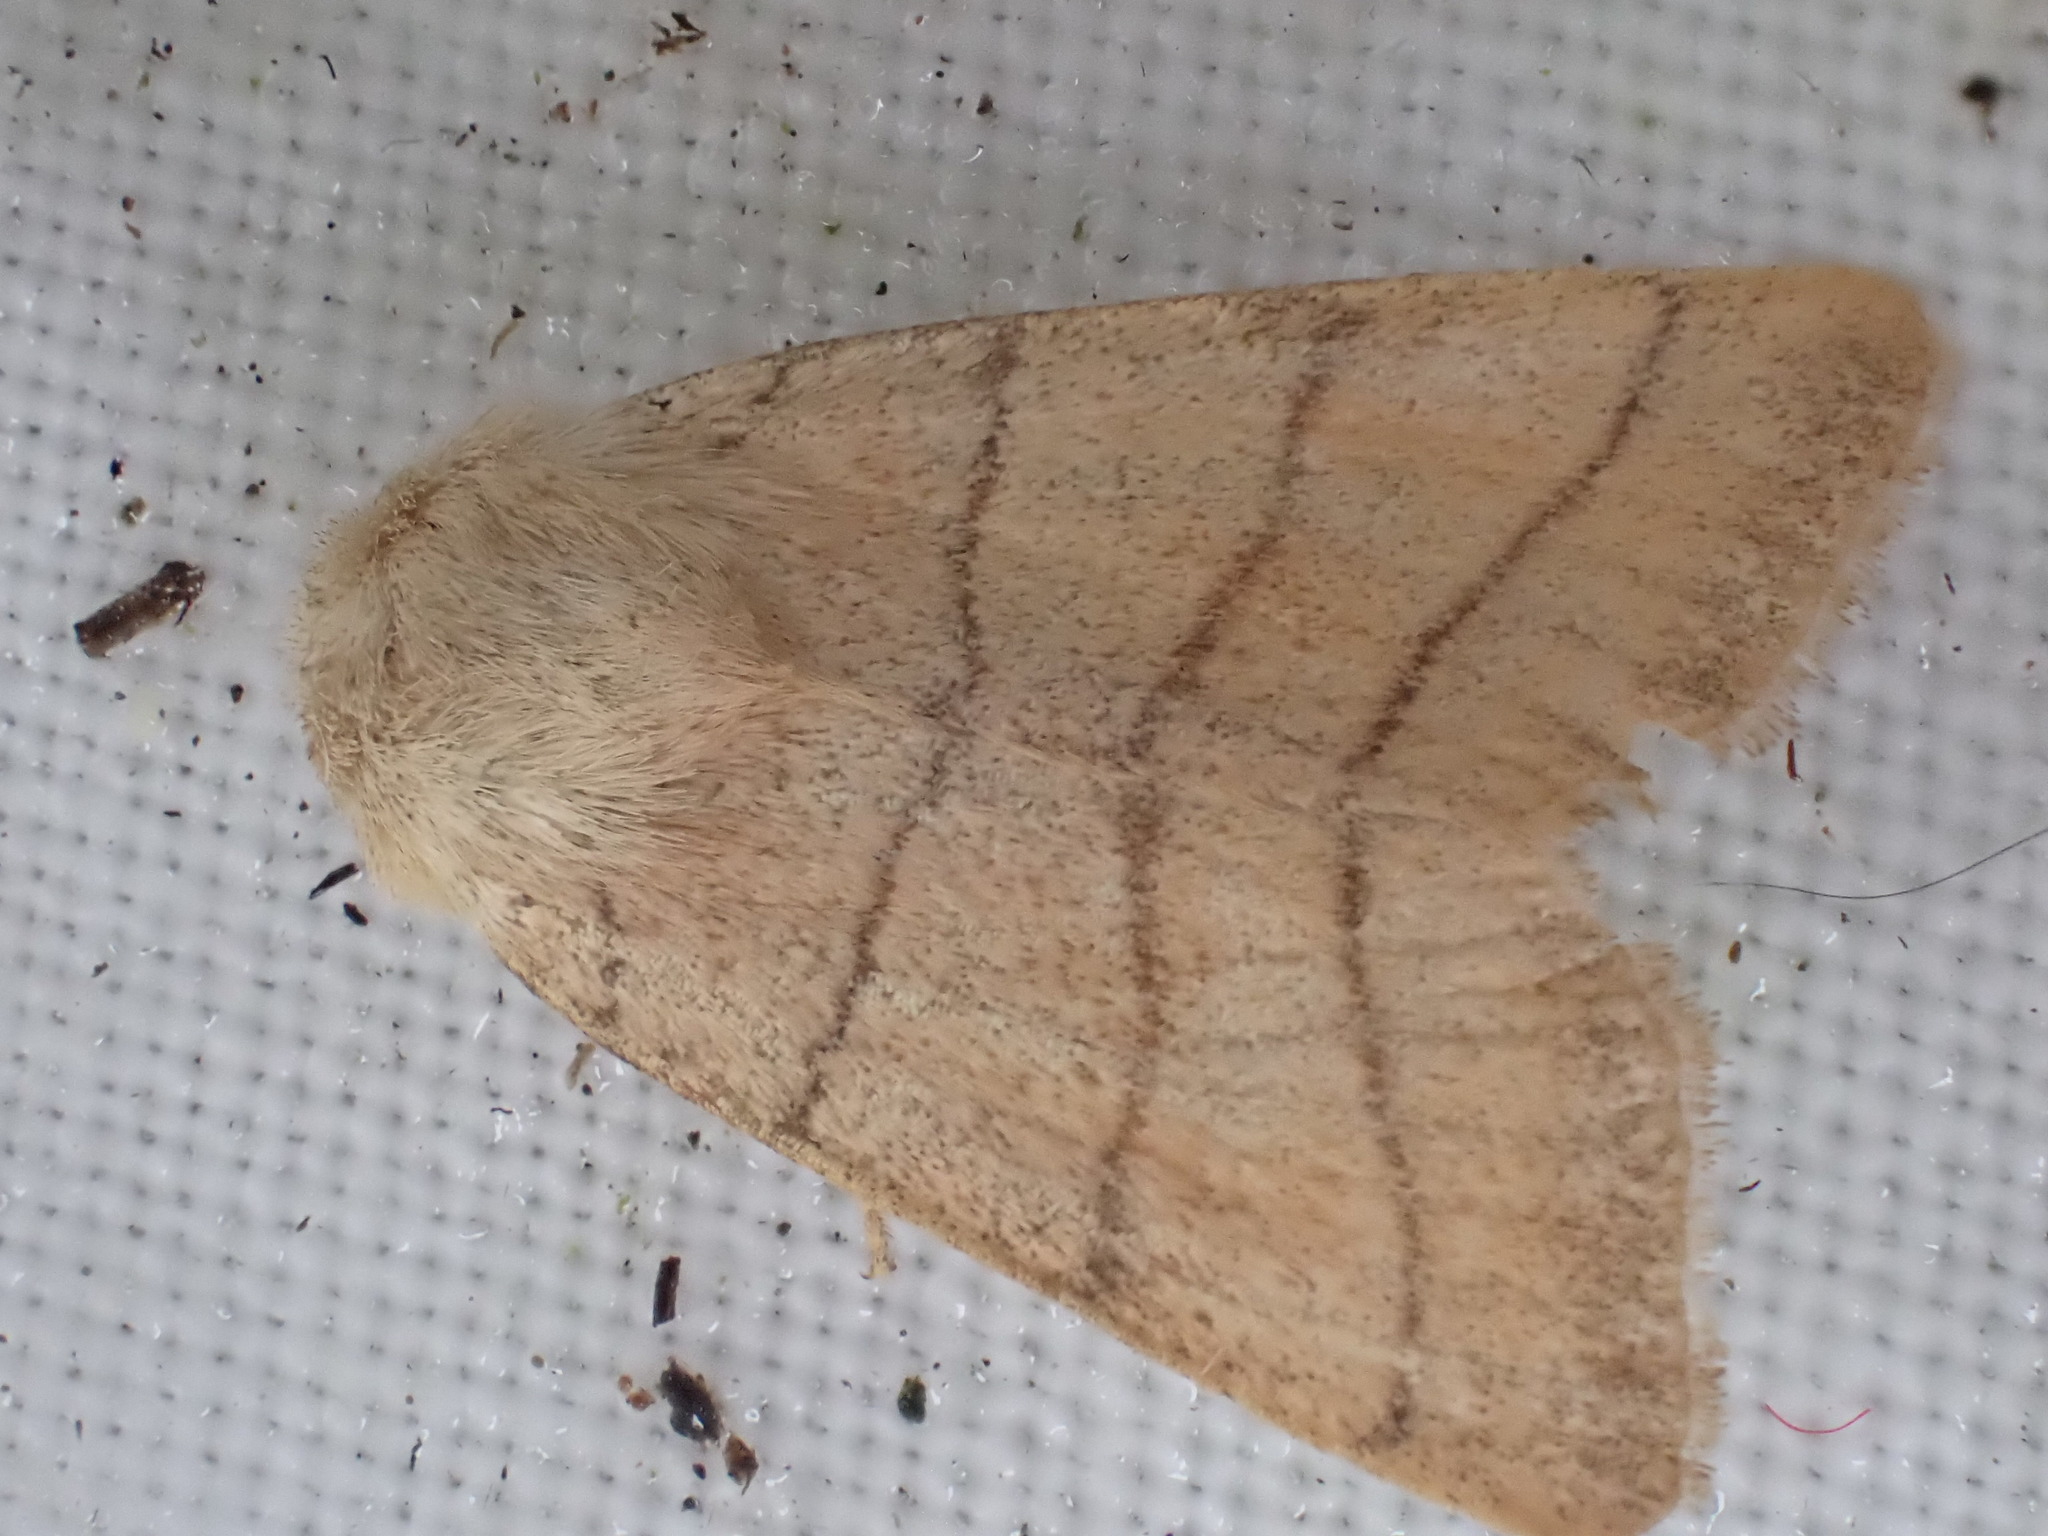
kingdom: Animalia
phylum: Arthropoda
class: Insecta
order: Lepidoptera
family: Noctuidae
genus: Charanyca
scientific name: Charanyca trigrammica
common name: Treble lines
